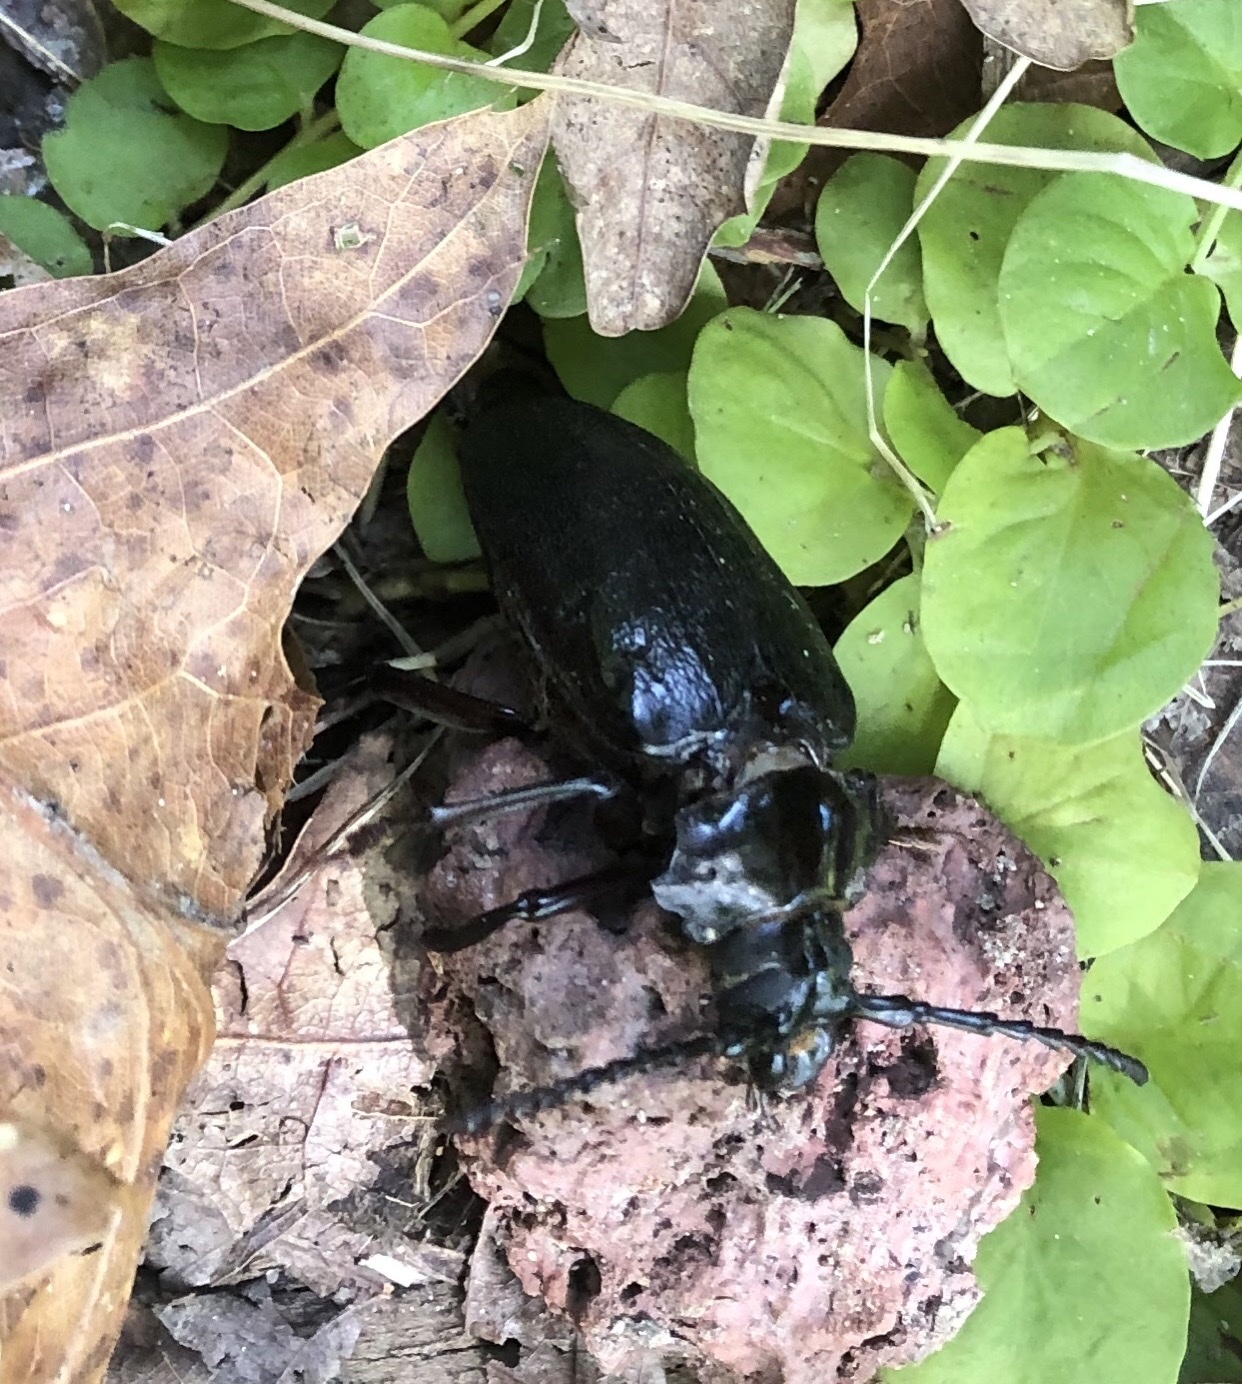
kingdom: Animalia
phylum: Arthropoda
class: Insecta
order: Coleoptera
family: Cerambycidae
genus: Prionus
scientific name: Prionus laticollis
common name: Broad necked prionus
